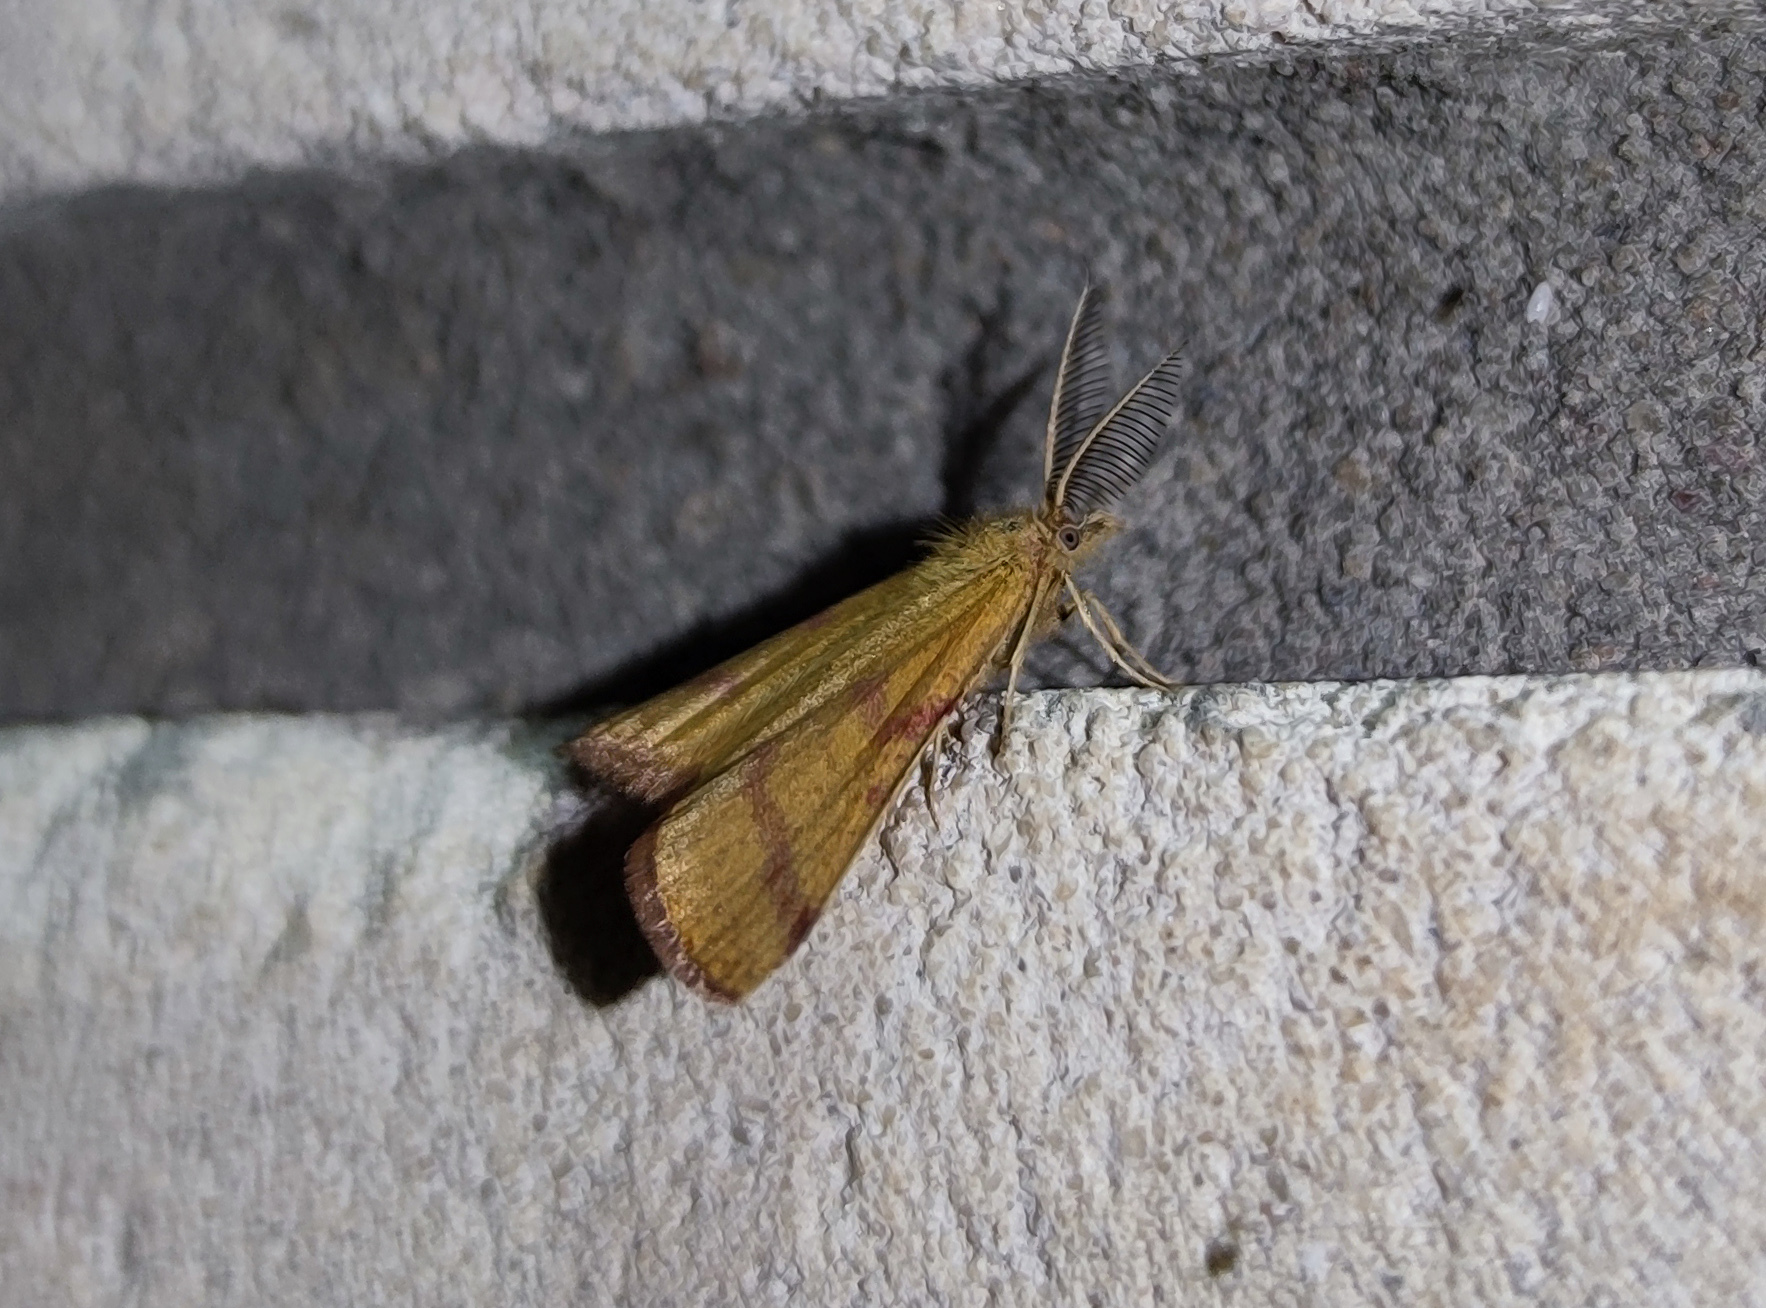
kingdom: Animalia
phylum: Arthropoda
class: Insecta
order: Lepidoptera
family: Geometridae
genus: Lythria
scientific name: Lythria purpuraria
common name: Purple-barred yellow
